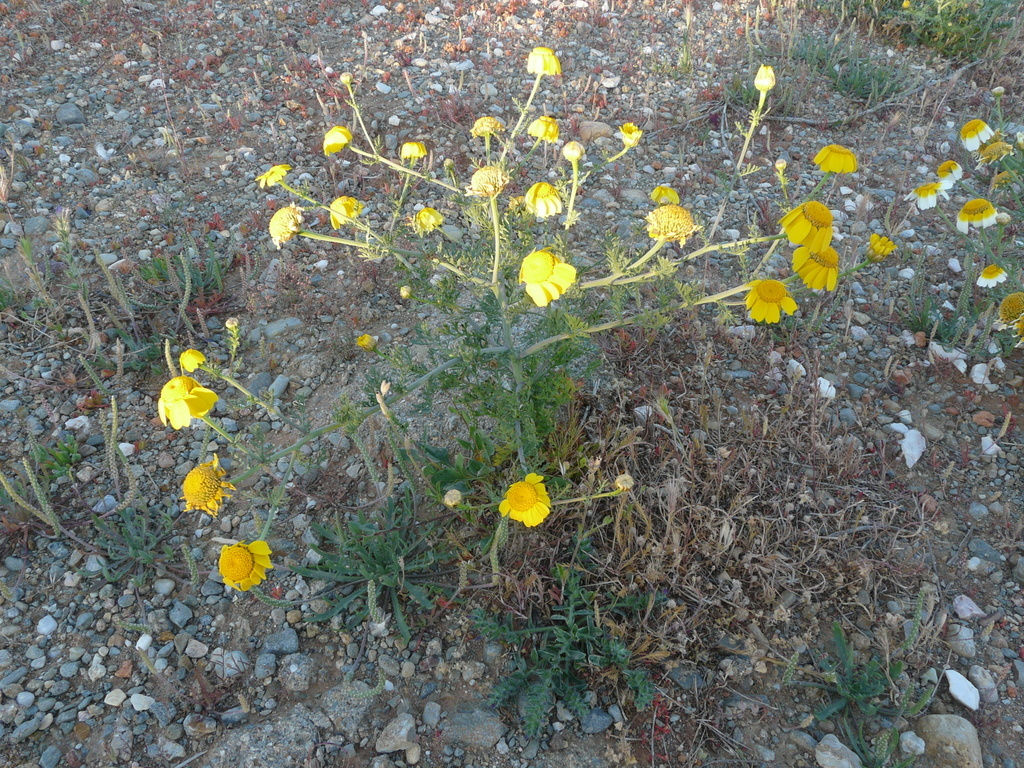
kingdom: Plantae
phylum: Tracheophyta
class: Magnoliopsida
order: Asterales
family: Asteraceae
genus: Glebionis
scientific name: Glebionis coronaria
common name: Crowndaisy
